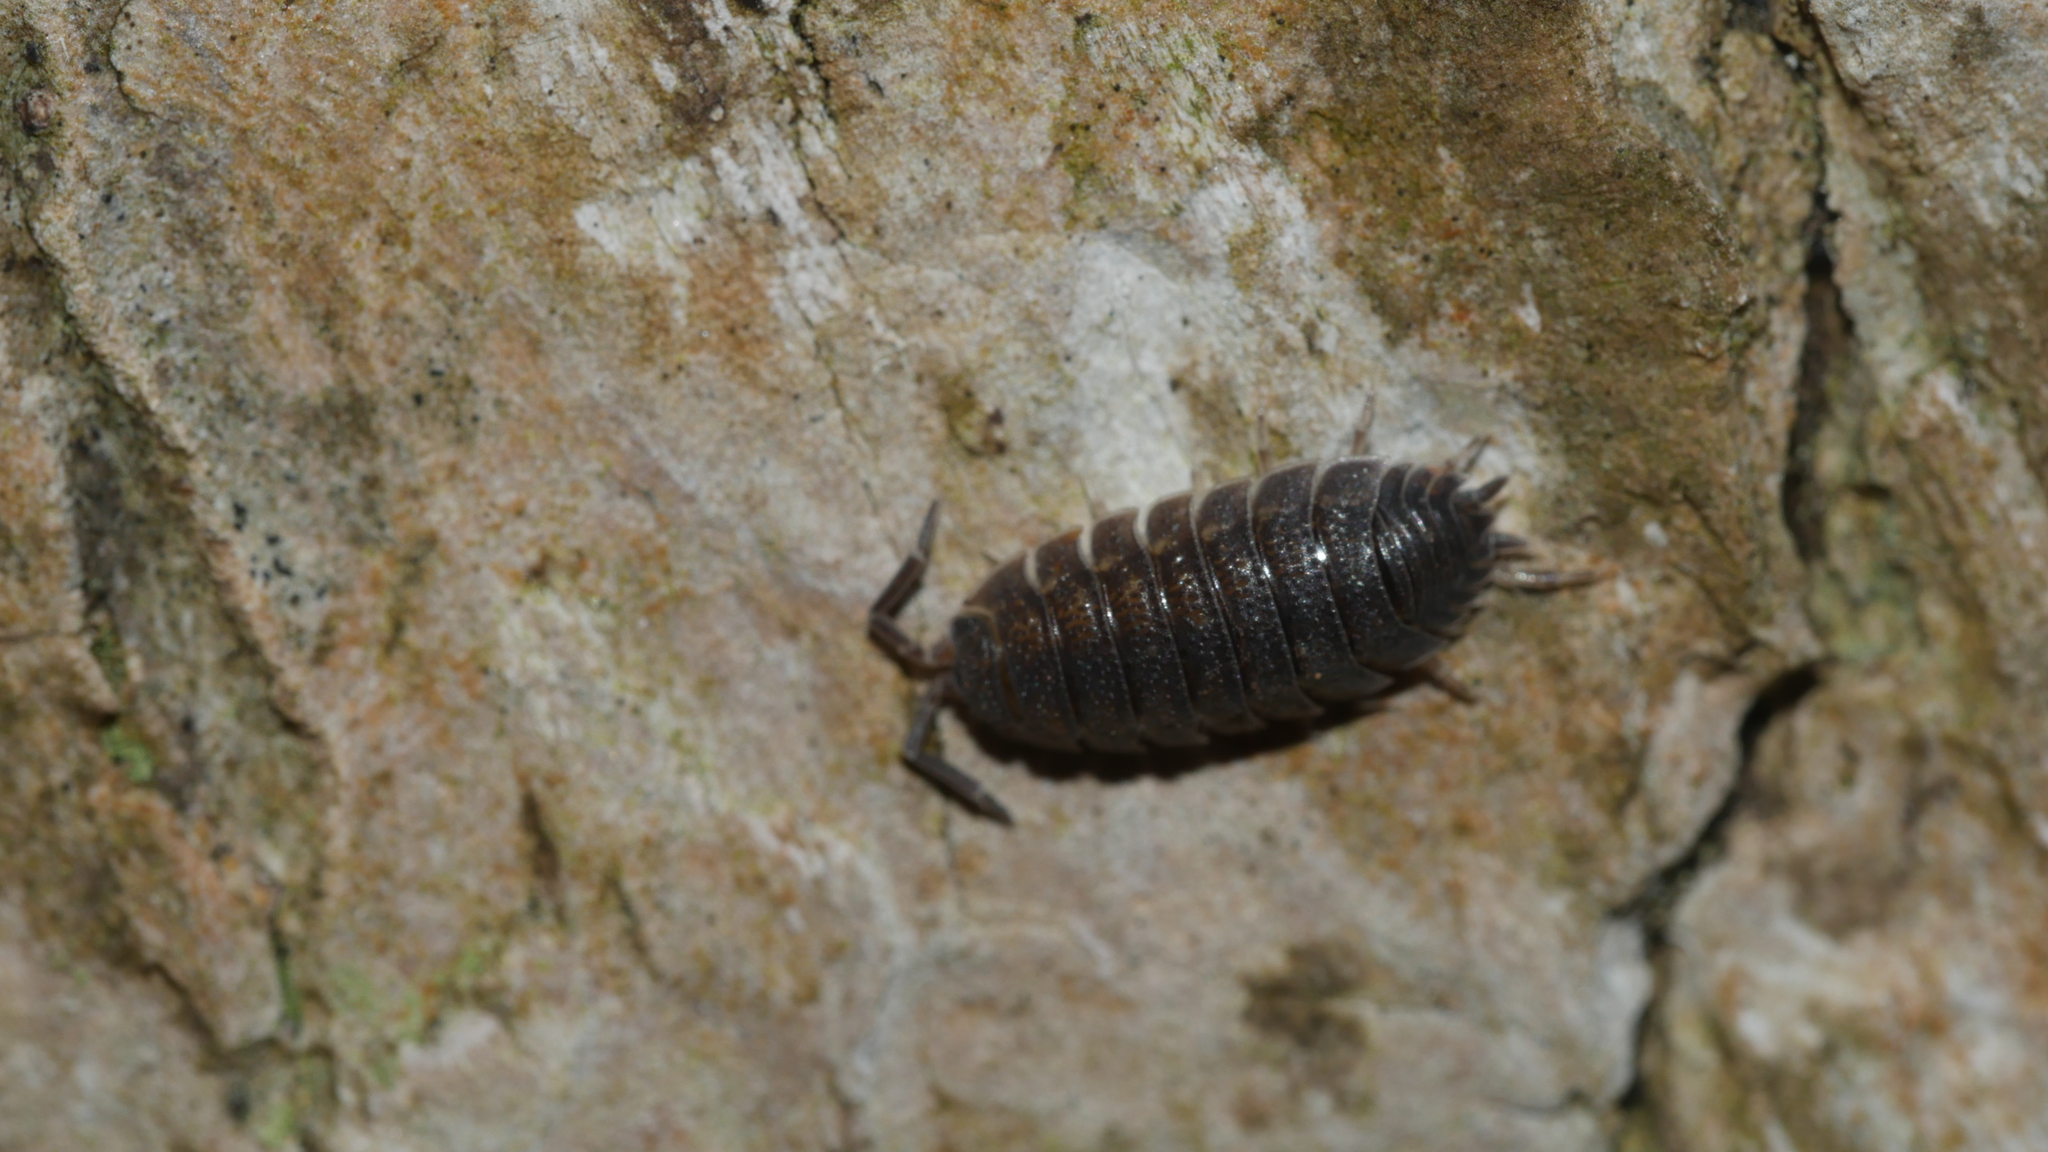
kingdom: Animalia
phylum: Arthropoda
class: Malacostraca
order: Isopoda
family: Porcellionidae
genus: Porcellio
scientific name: Porcellio scaber
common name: Common rough woodlouse
